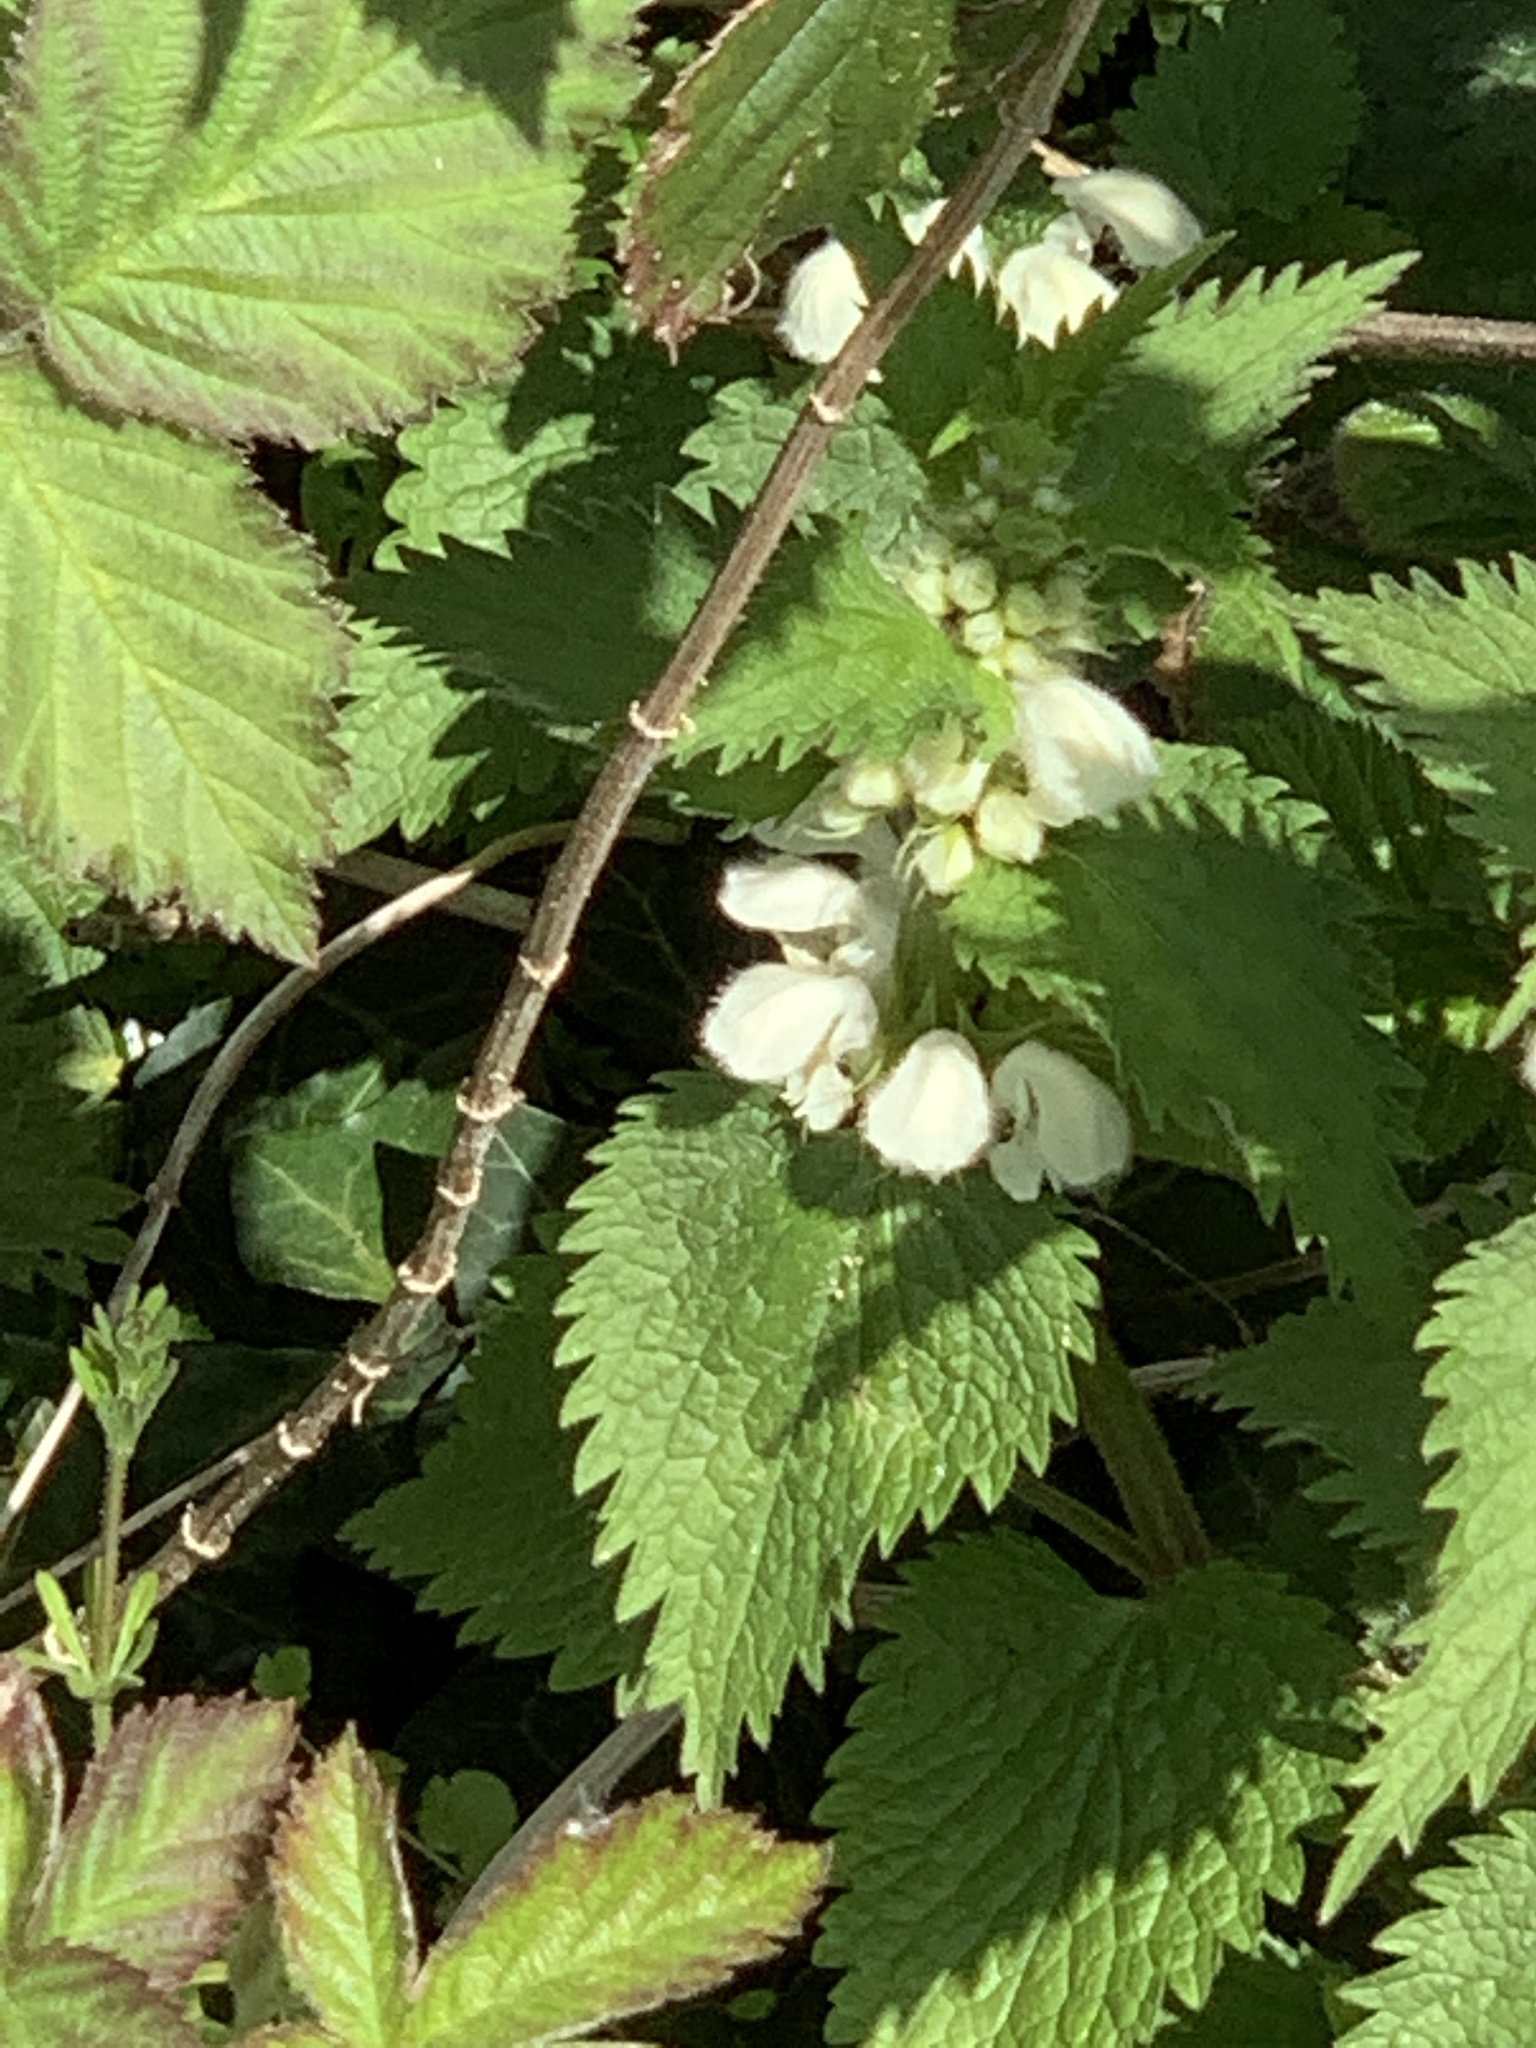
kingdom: Plantae
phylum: Tracheophyta
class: Magnoliopsida
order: Lamiales
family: Lamiaceae
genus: Lamium
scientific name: Lamium album
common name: White dead-nettle
